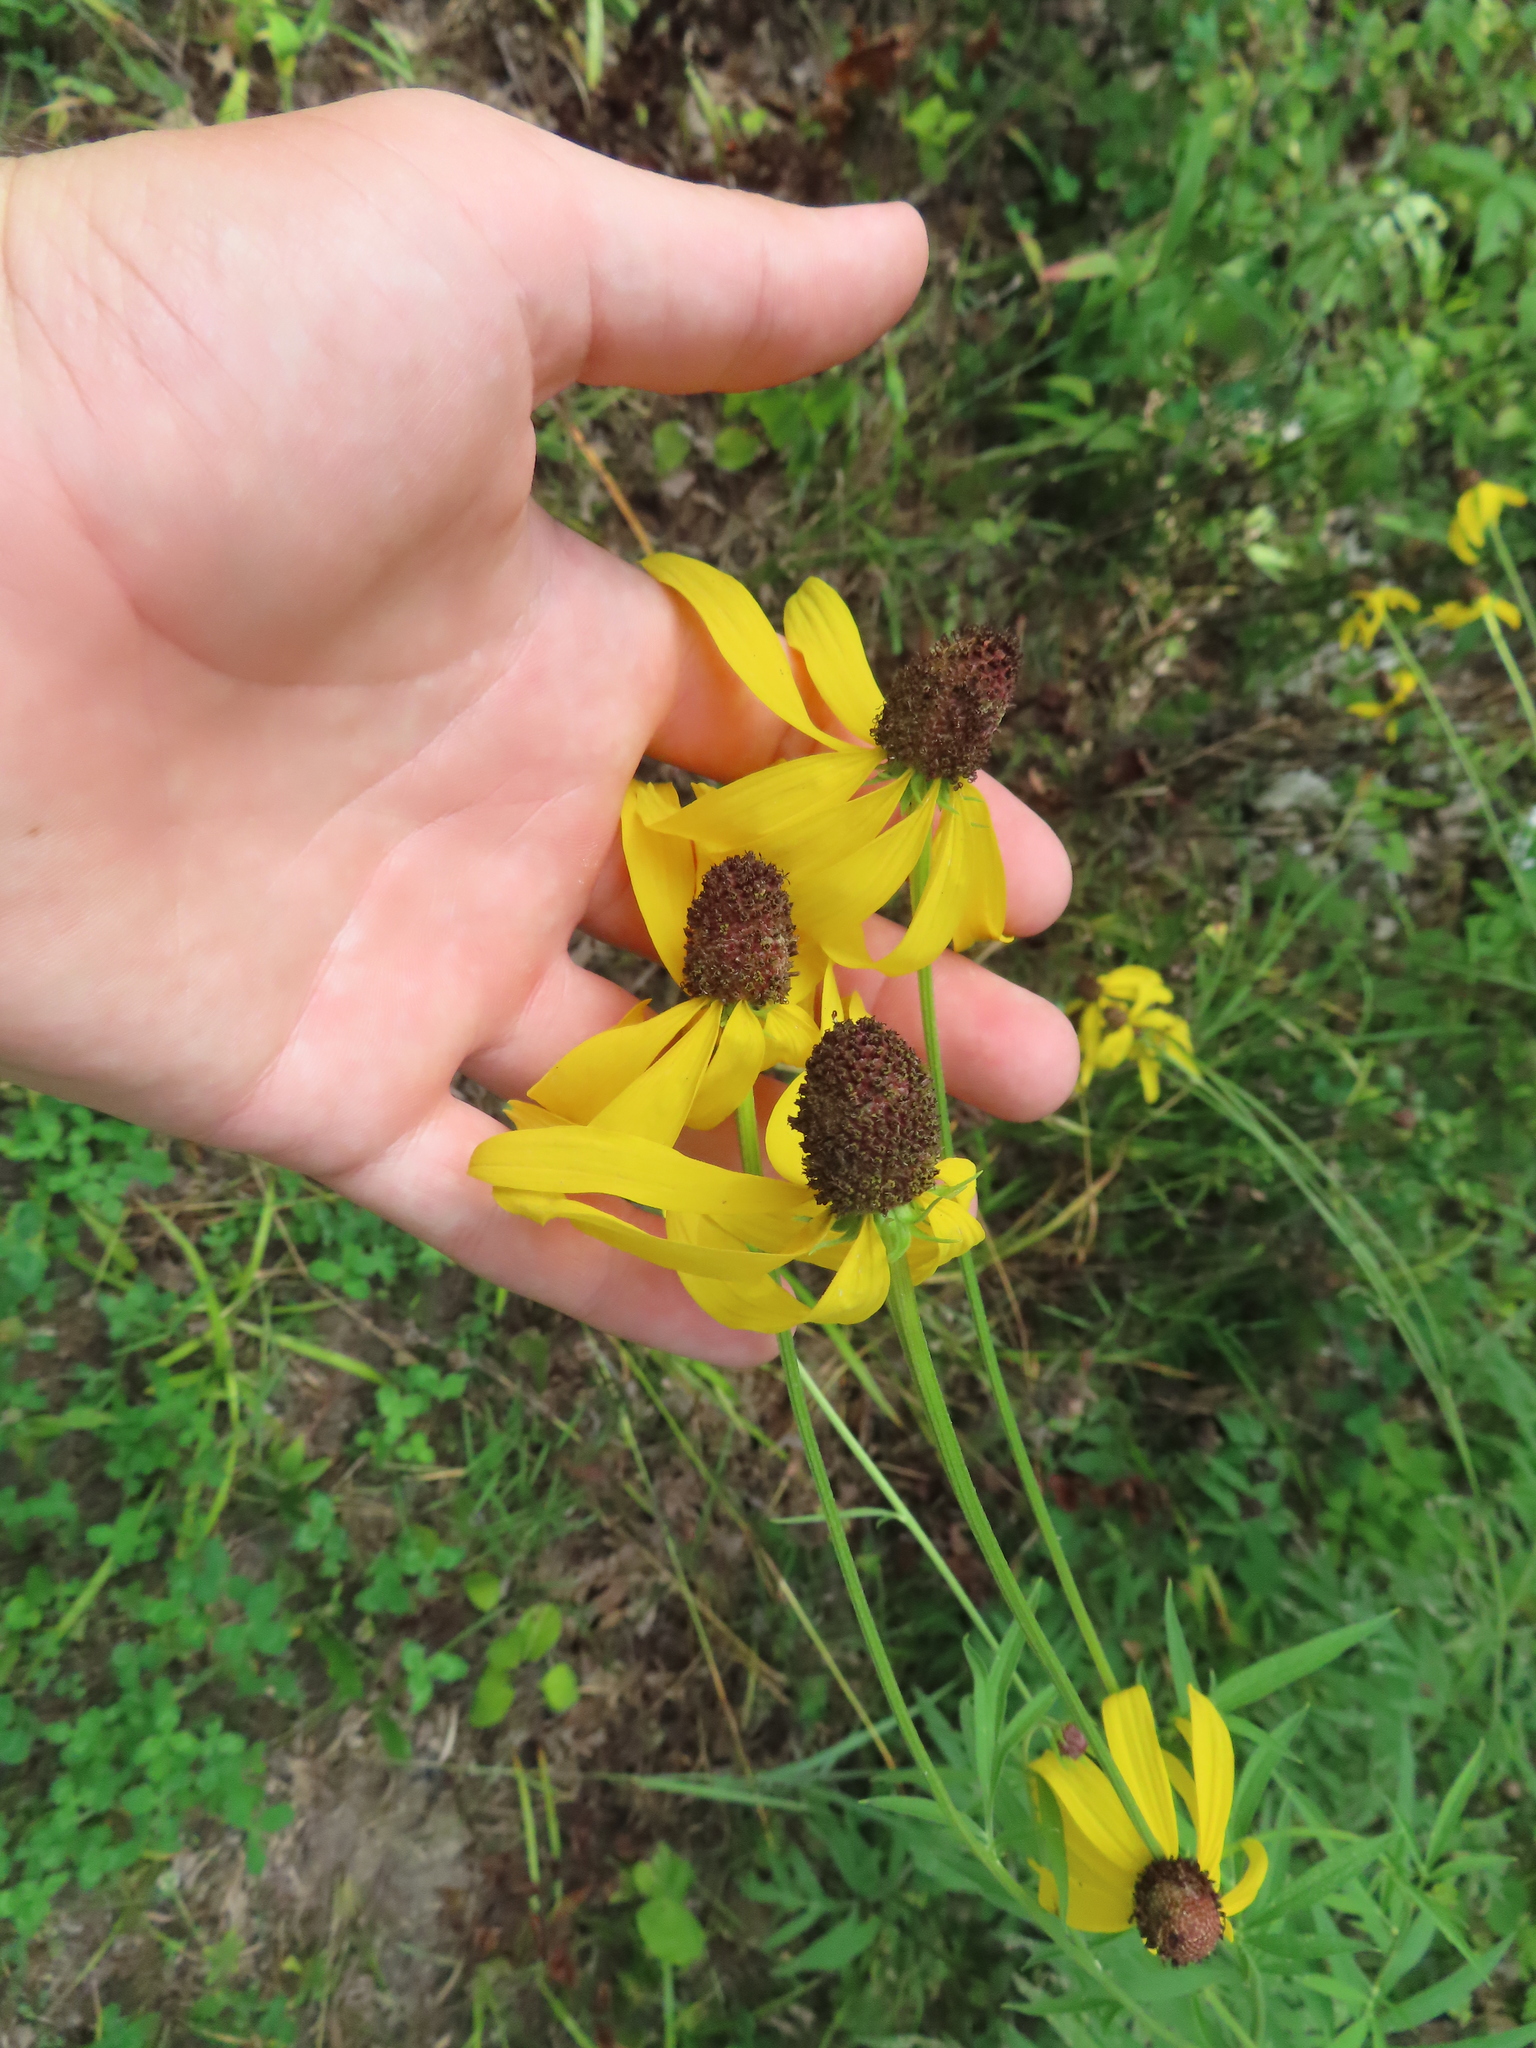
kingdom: Plantae
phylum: Tracheophyta
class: Magnoliopsida
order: Asterales
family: Asteraceae
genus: Ratibida
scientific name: Ratibida pinnata
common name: Drooping prairie-coneflower
